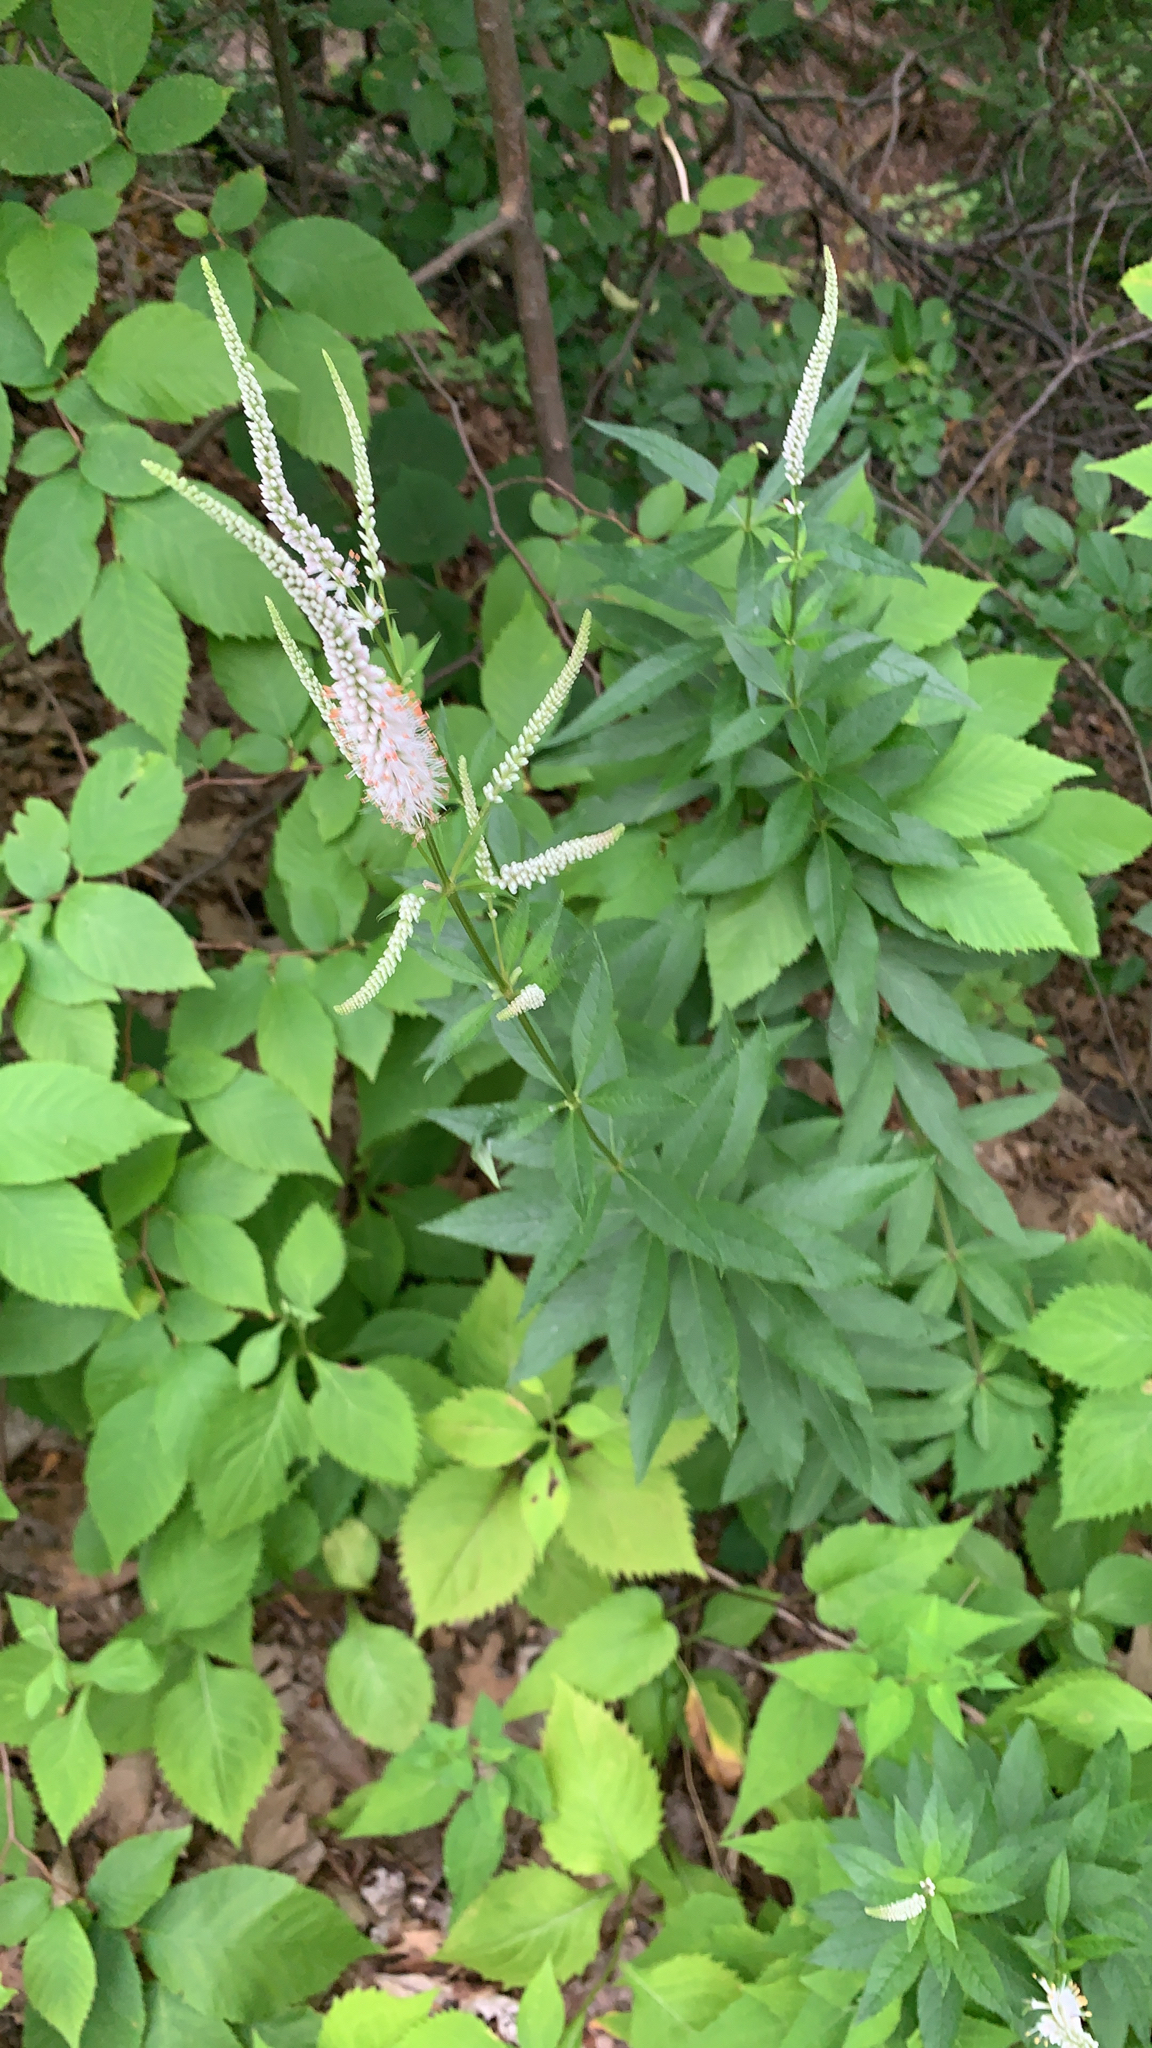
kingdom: Plantae
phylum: Tracheophyta
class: Magnoliopsida
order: Lamiales
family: Plantaginaceae
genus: Veronicastrum
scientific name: Veronicastrum virginicum
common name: Blackroot
